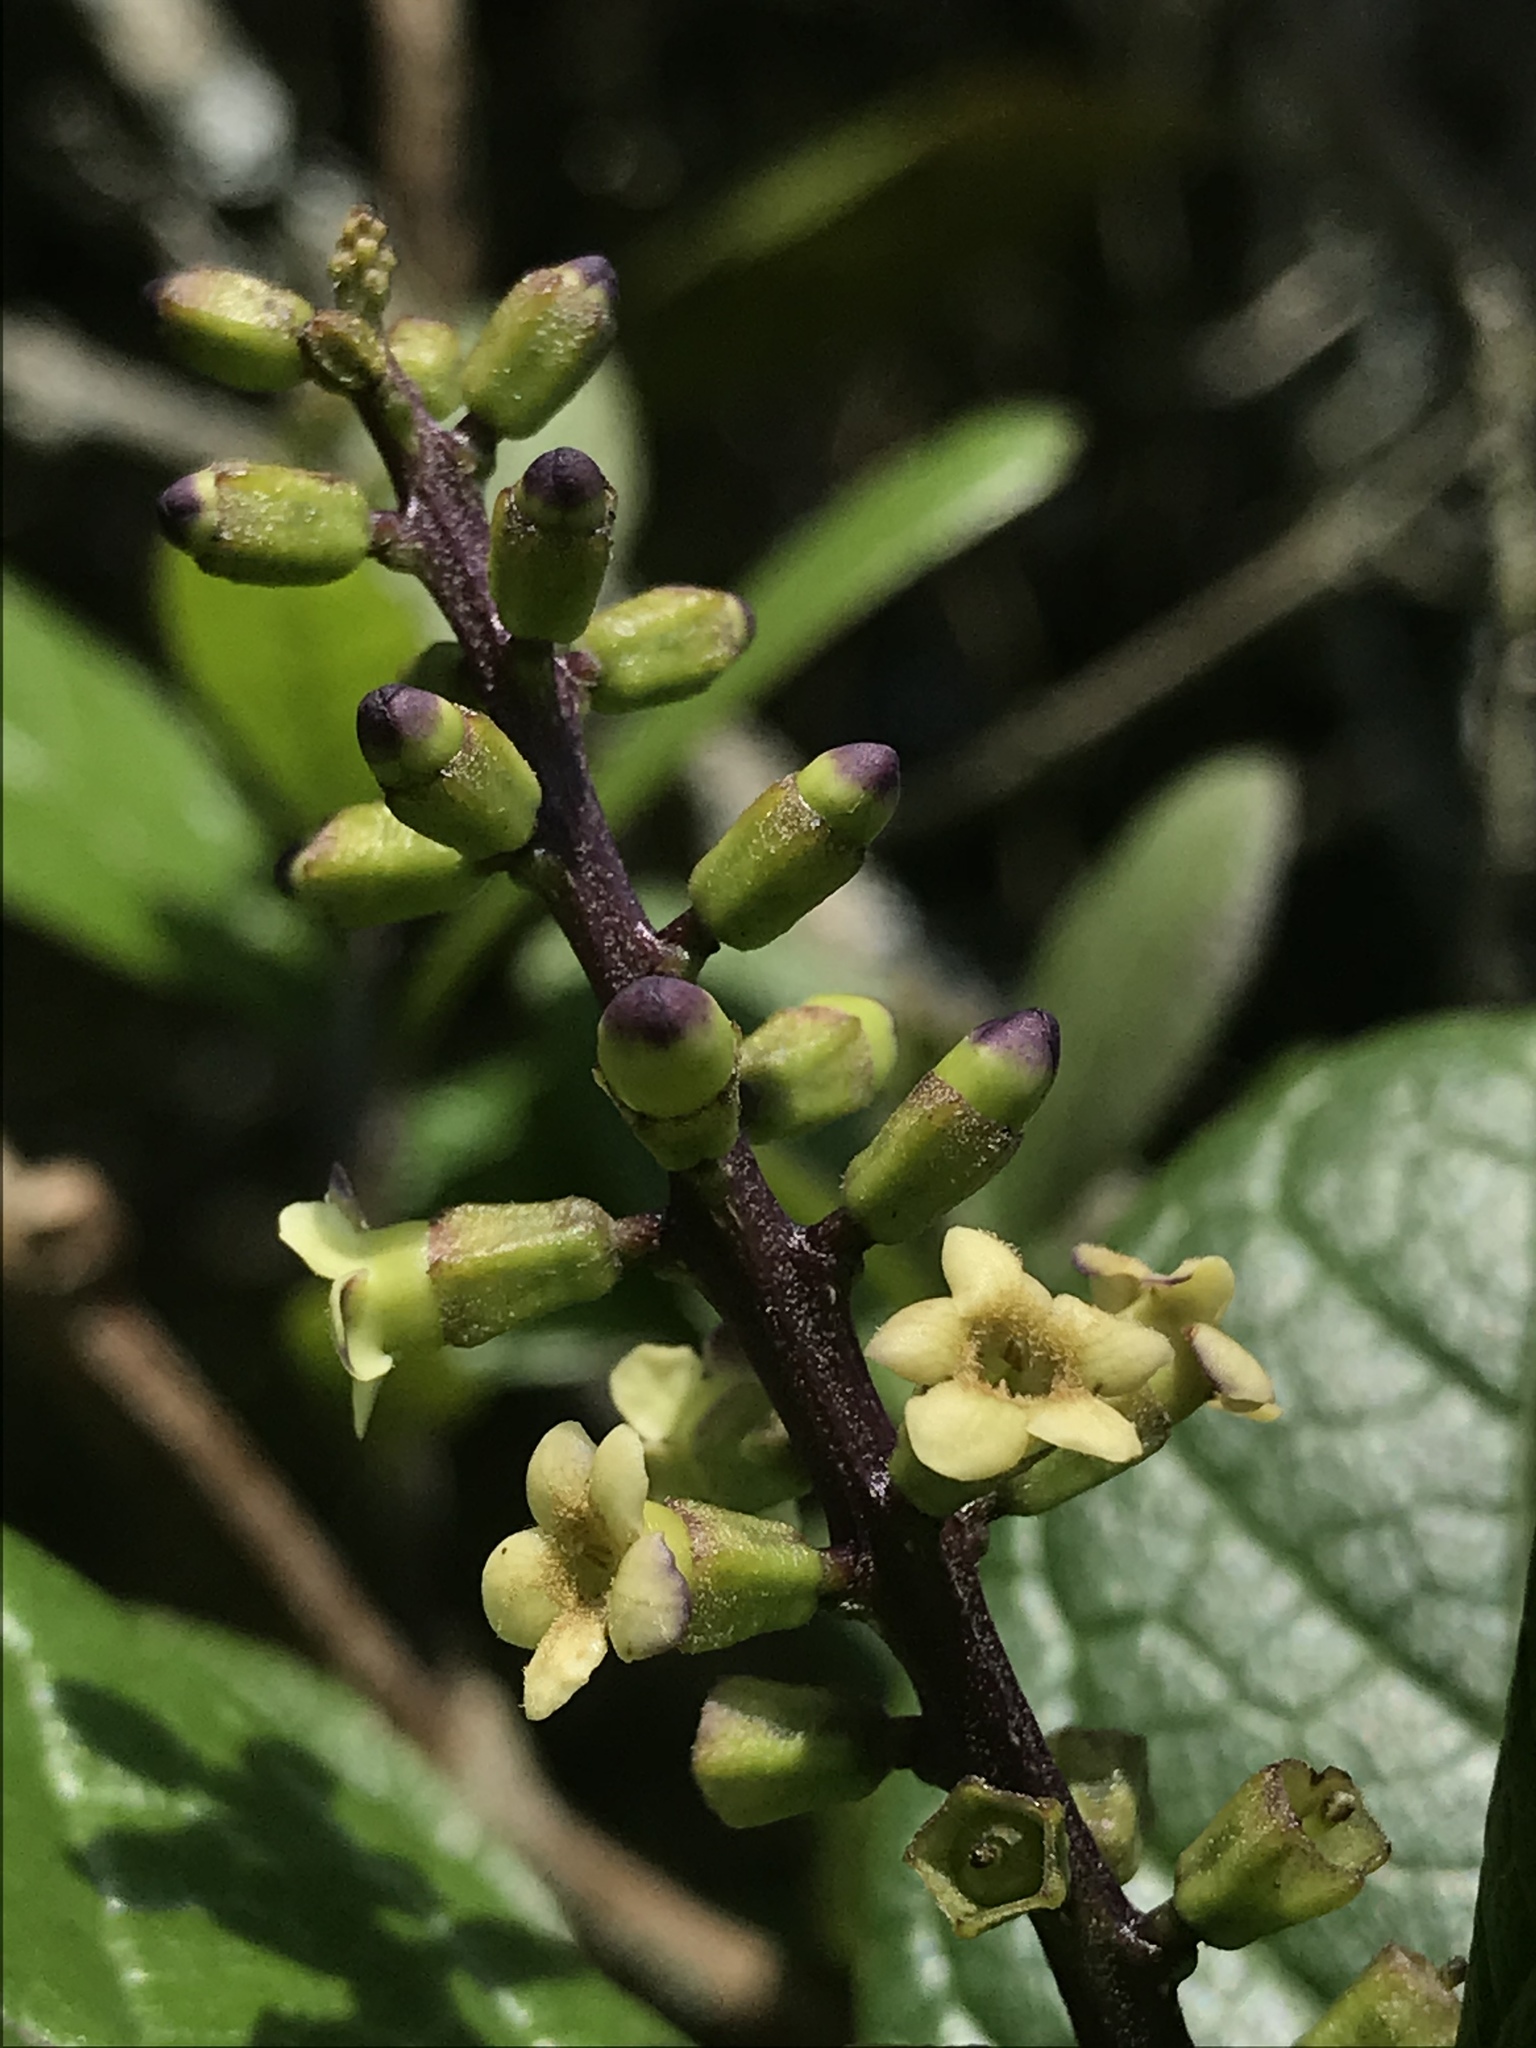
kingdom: Plantae
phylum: Tracheophyta
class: Magnoliopsida
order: Lamiales
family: Verbenaceae
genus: Citharexylum
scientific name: Citharexylum reticulatum
